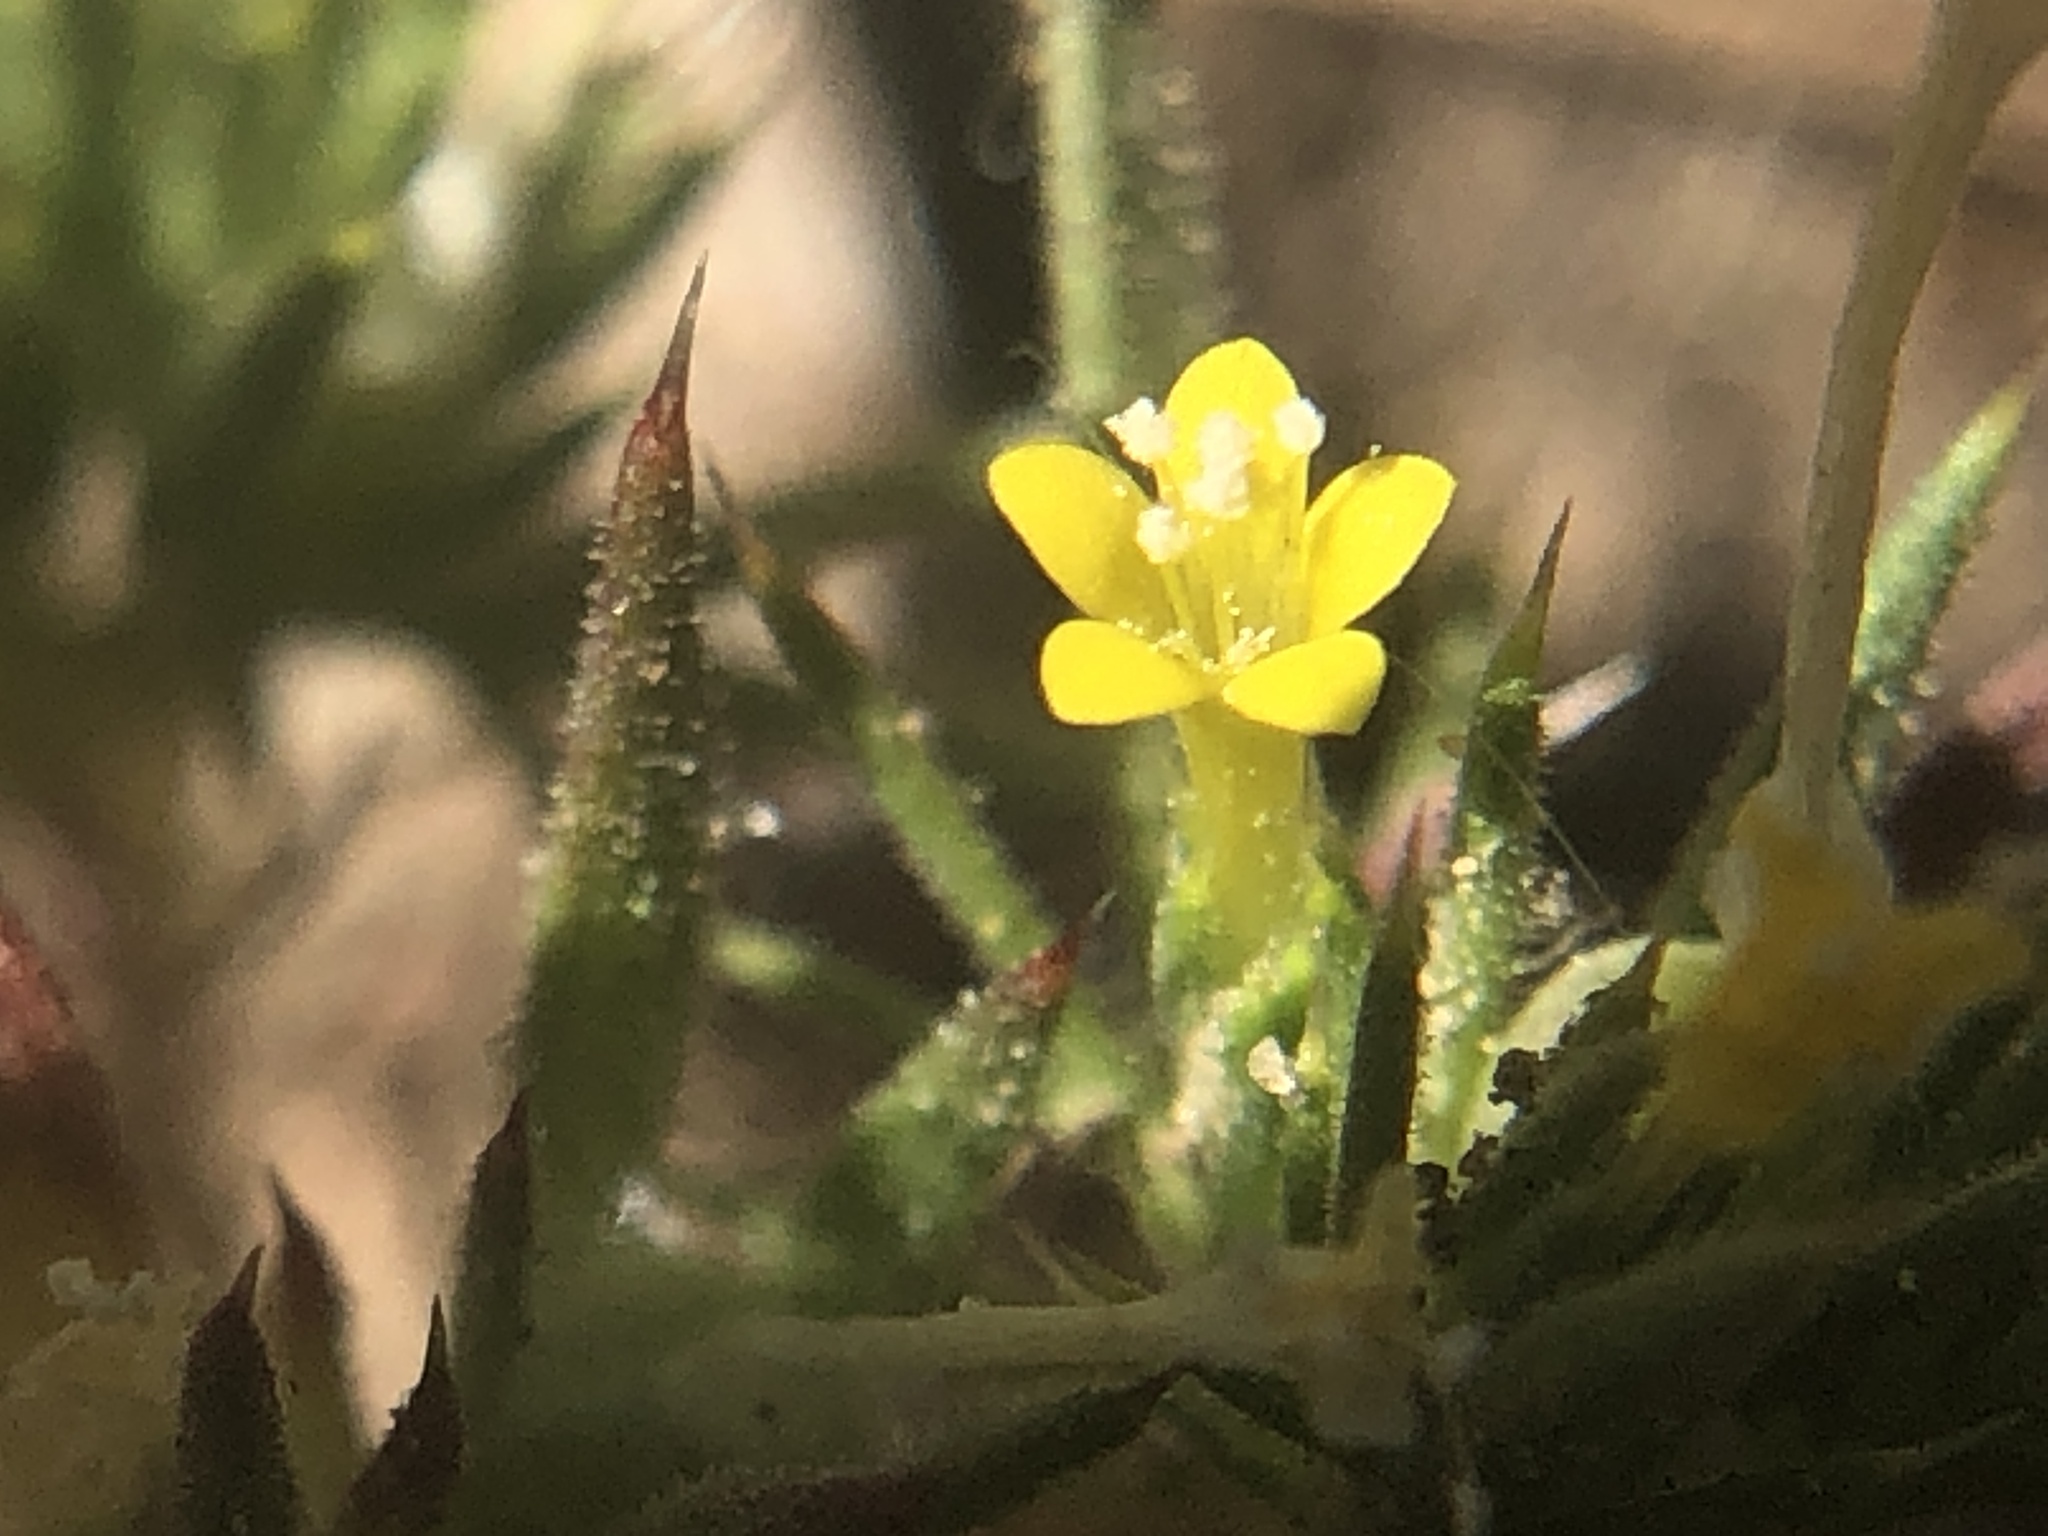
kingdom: Plantae
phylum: Tracheophyta
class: Magnoliopsida
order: Ericales
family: Polemoniaceae
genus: Navarretia
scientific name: Navarretia breweri
